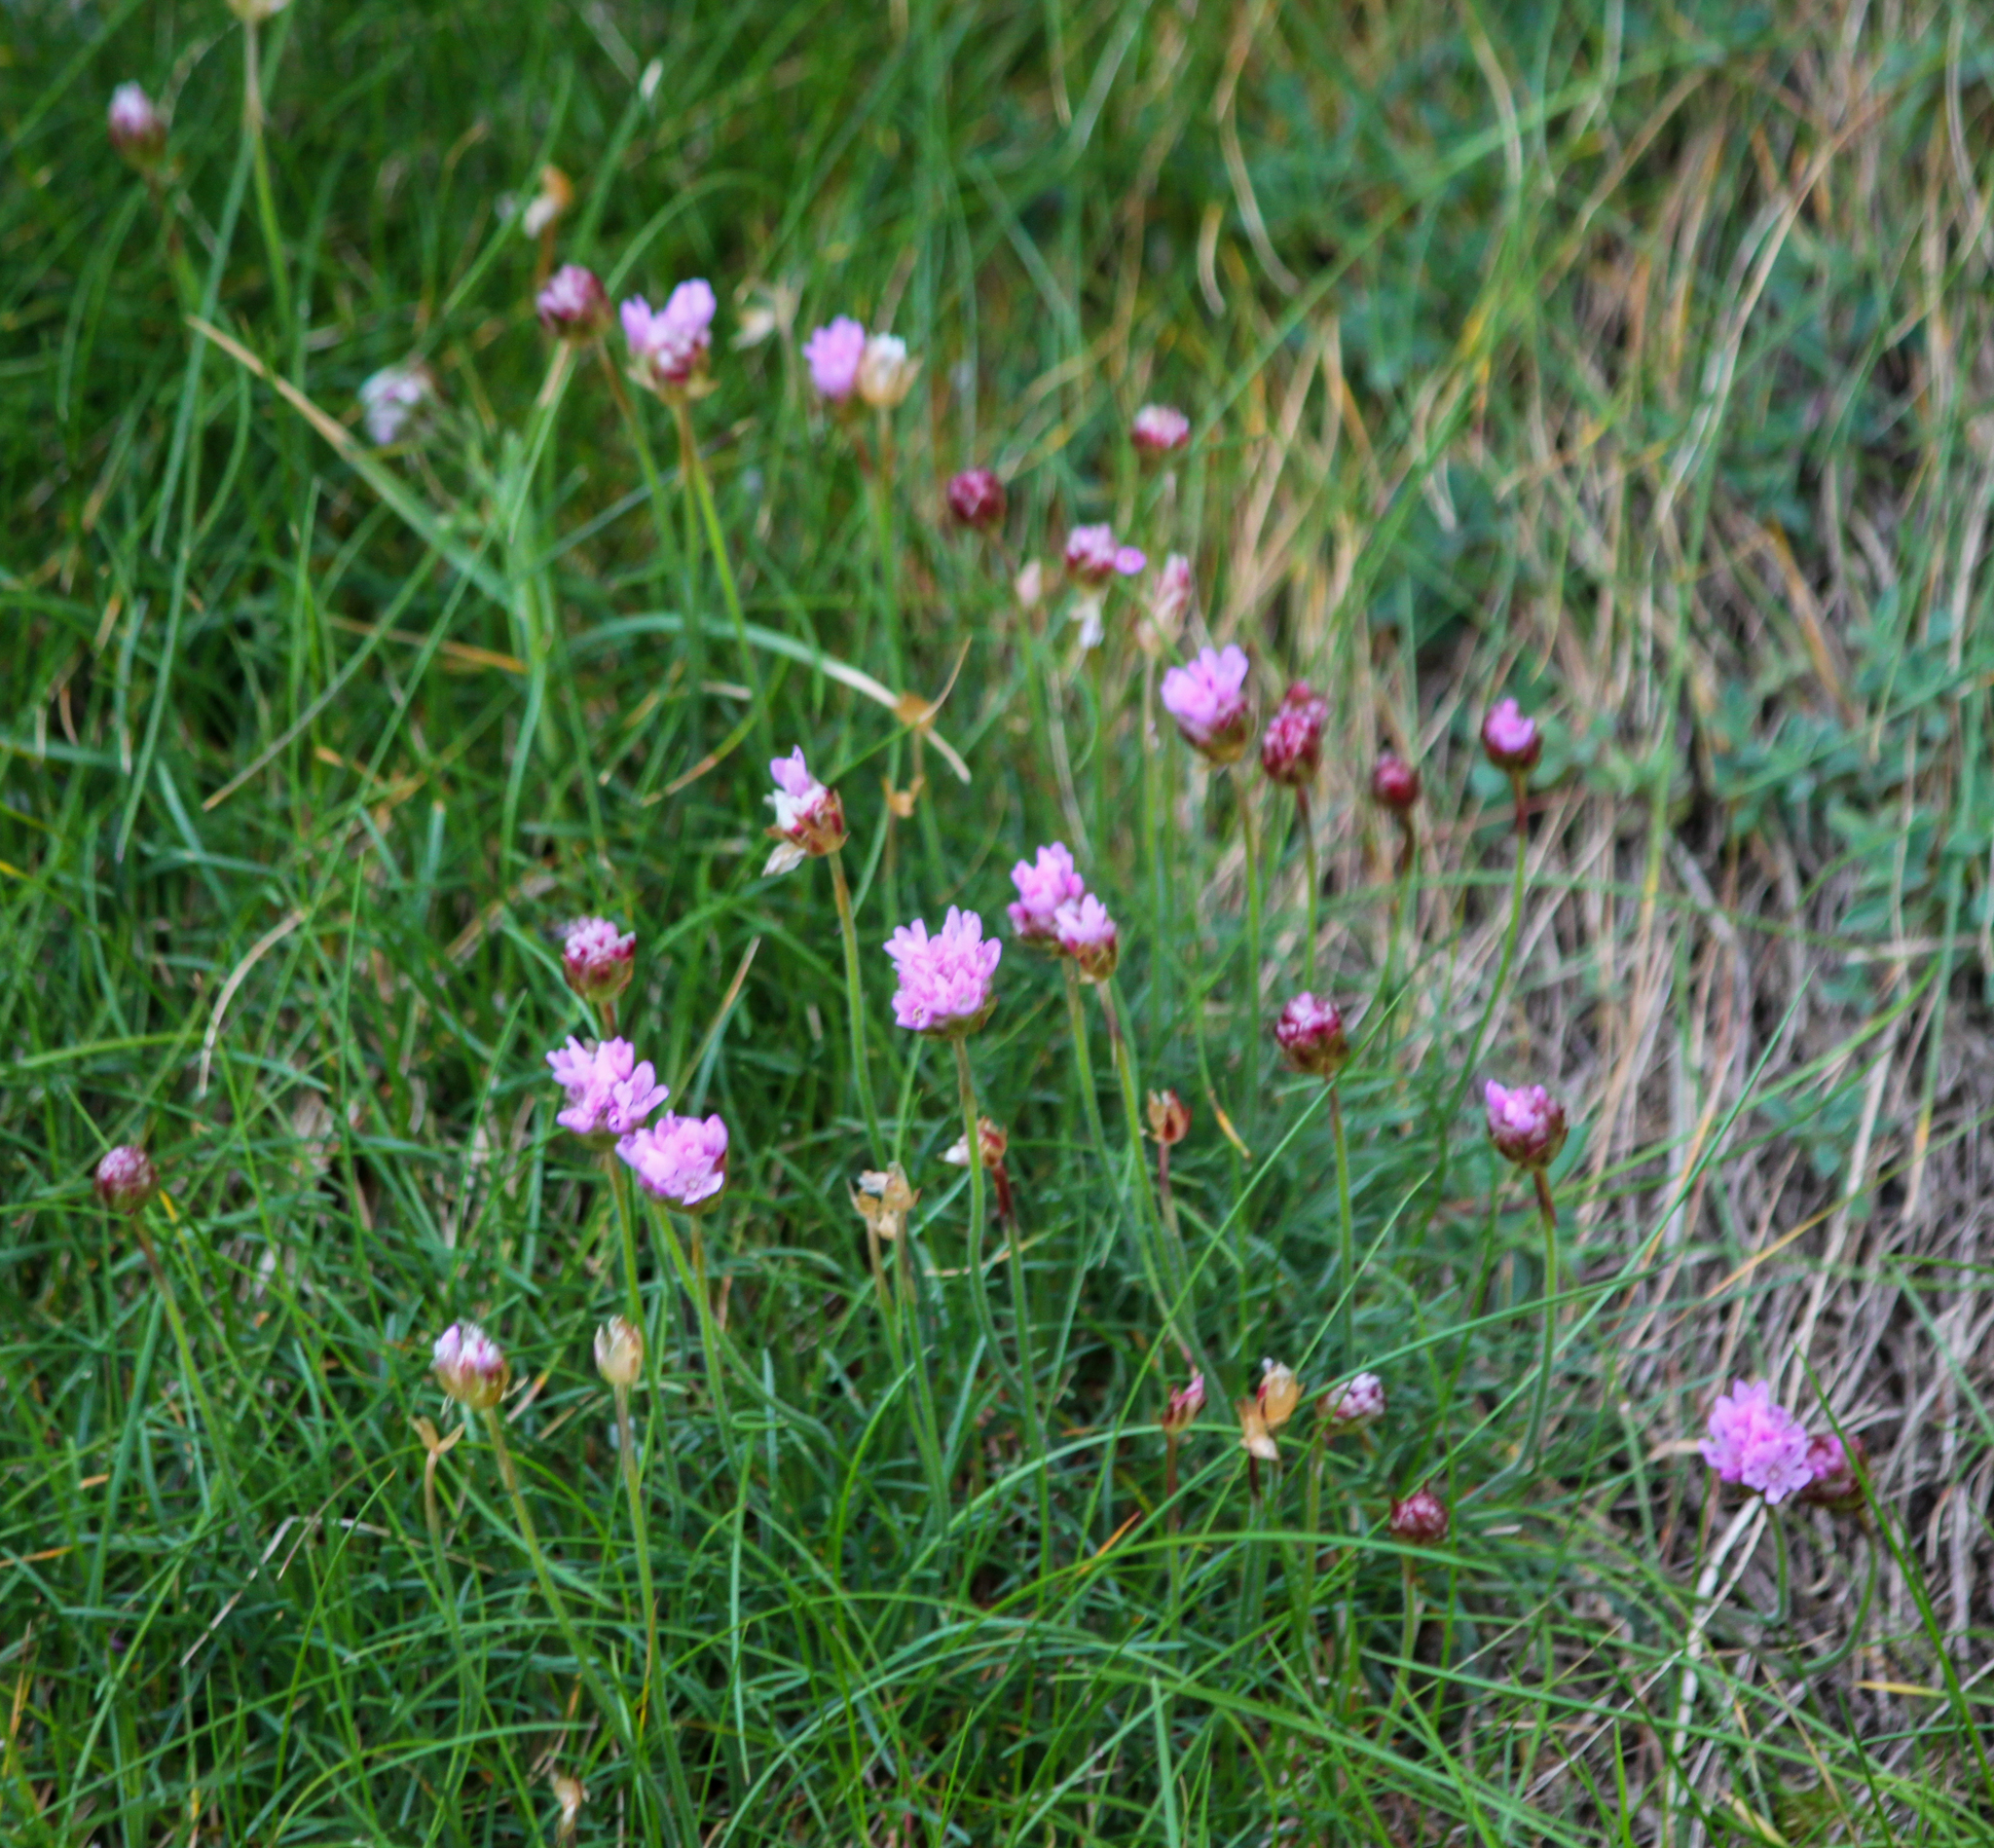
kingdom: Plantae
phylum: Tracheophyta
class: Magnoliopsida
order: Caryophyllales
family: Plumbaginaceae
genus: Armeria
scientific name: Armeria maritima
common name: Thrift
